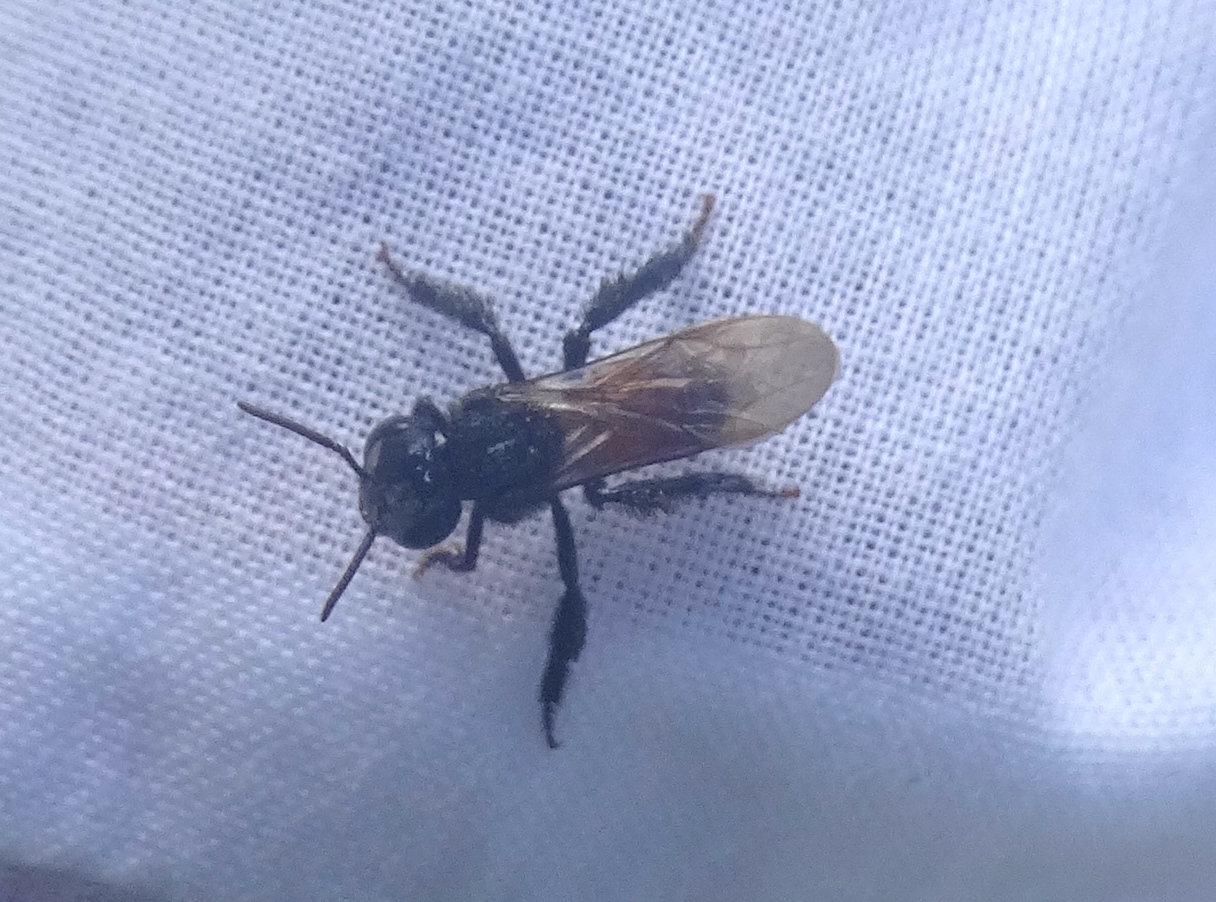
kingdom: Animalia
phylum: Arthropoda
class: Insecta
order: Hymenoptera
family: Apidae
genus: Trigona
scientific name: Trigona fulviventris
